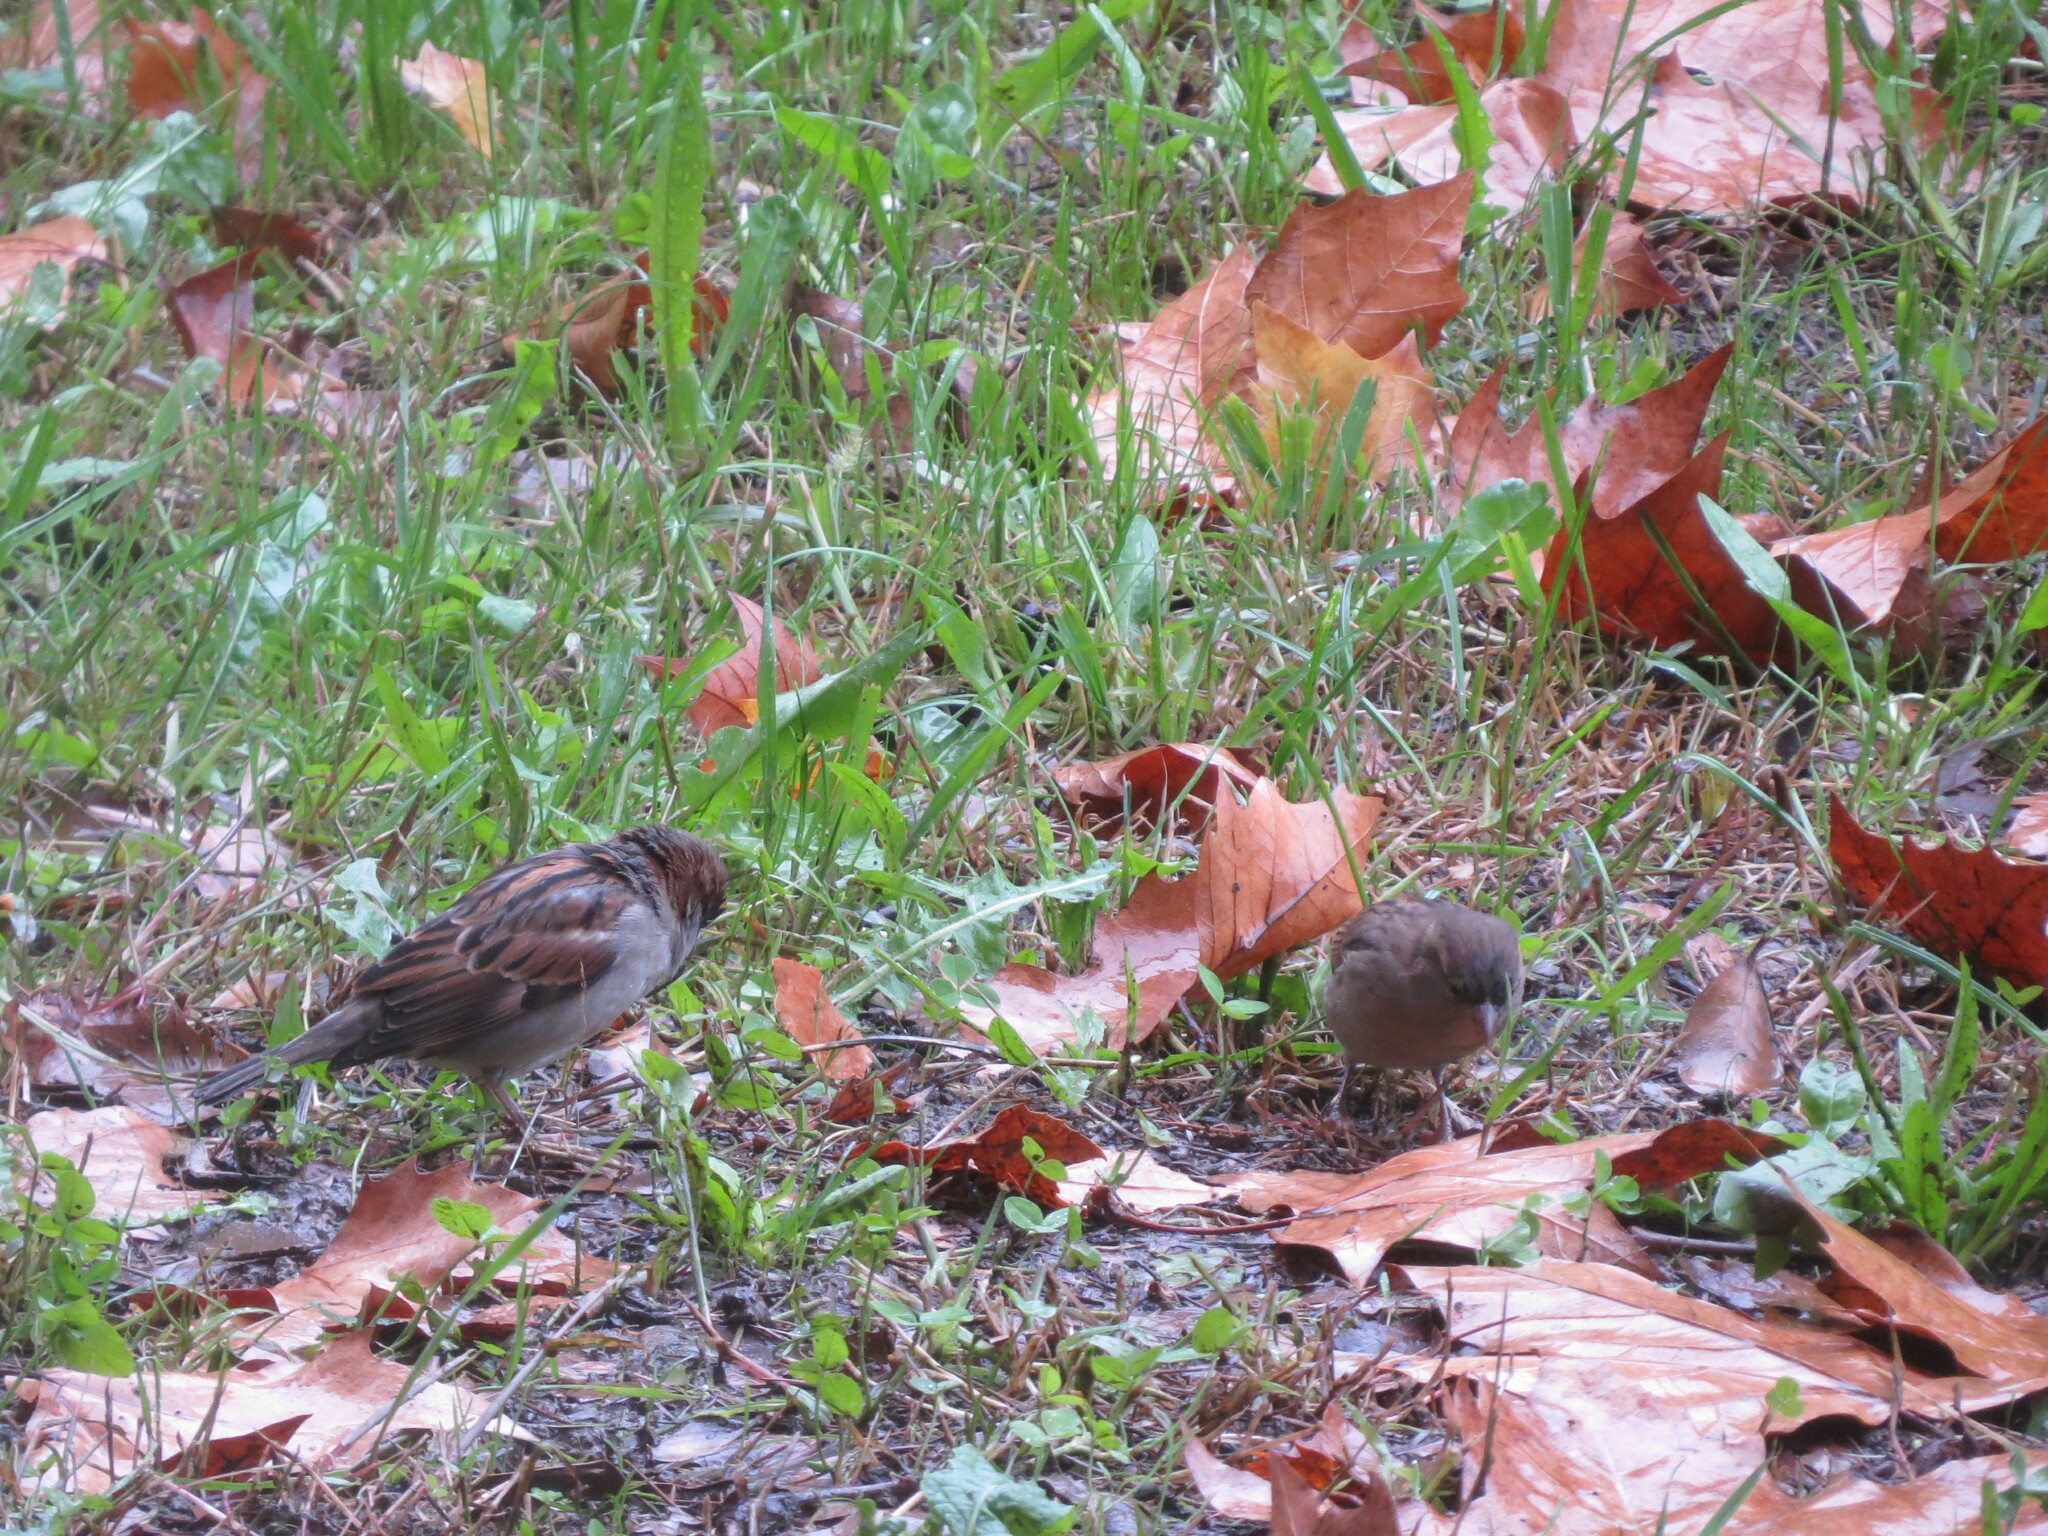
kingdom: Animalia
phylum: Chordata
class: Aves
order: Passeriformes
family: Passeridae
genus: Passer
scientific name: Passer domesticus
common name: House sparrow
